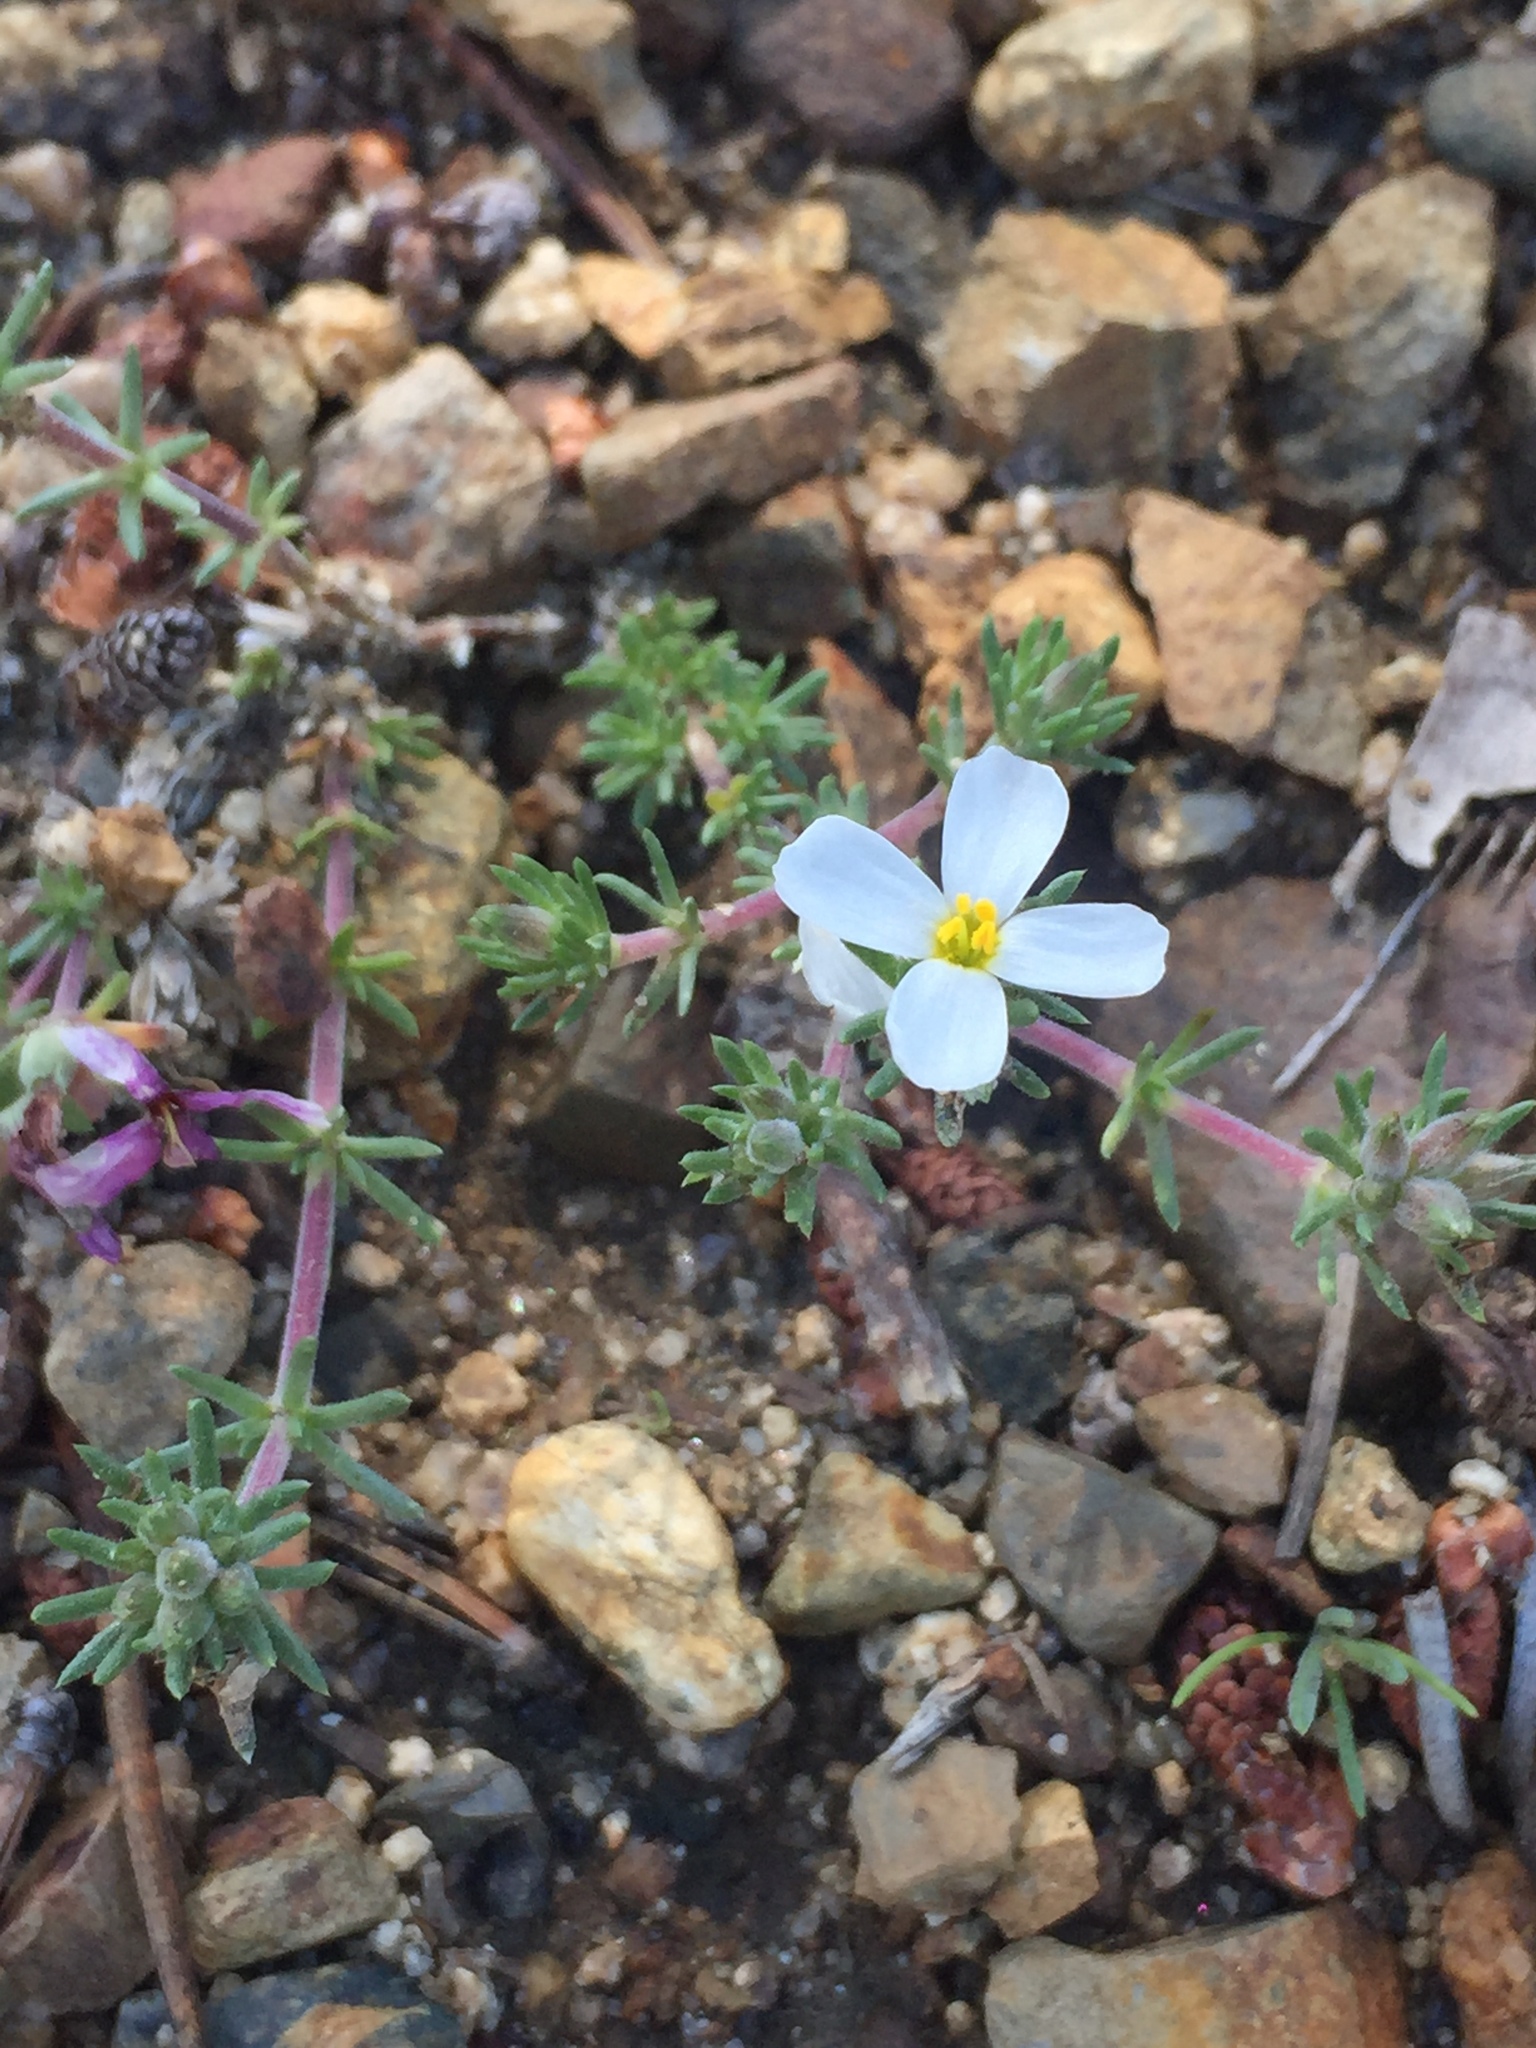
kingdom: Plantae
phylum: Tracheophyta
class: Magnoliopsida
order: Ericales
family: Polemoniaceae
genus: Leptosiphon
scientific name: Leptosiphon melingii
